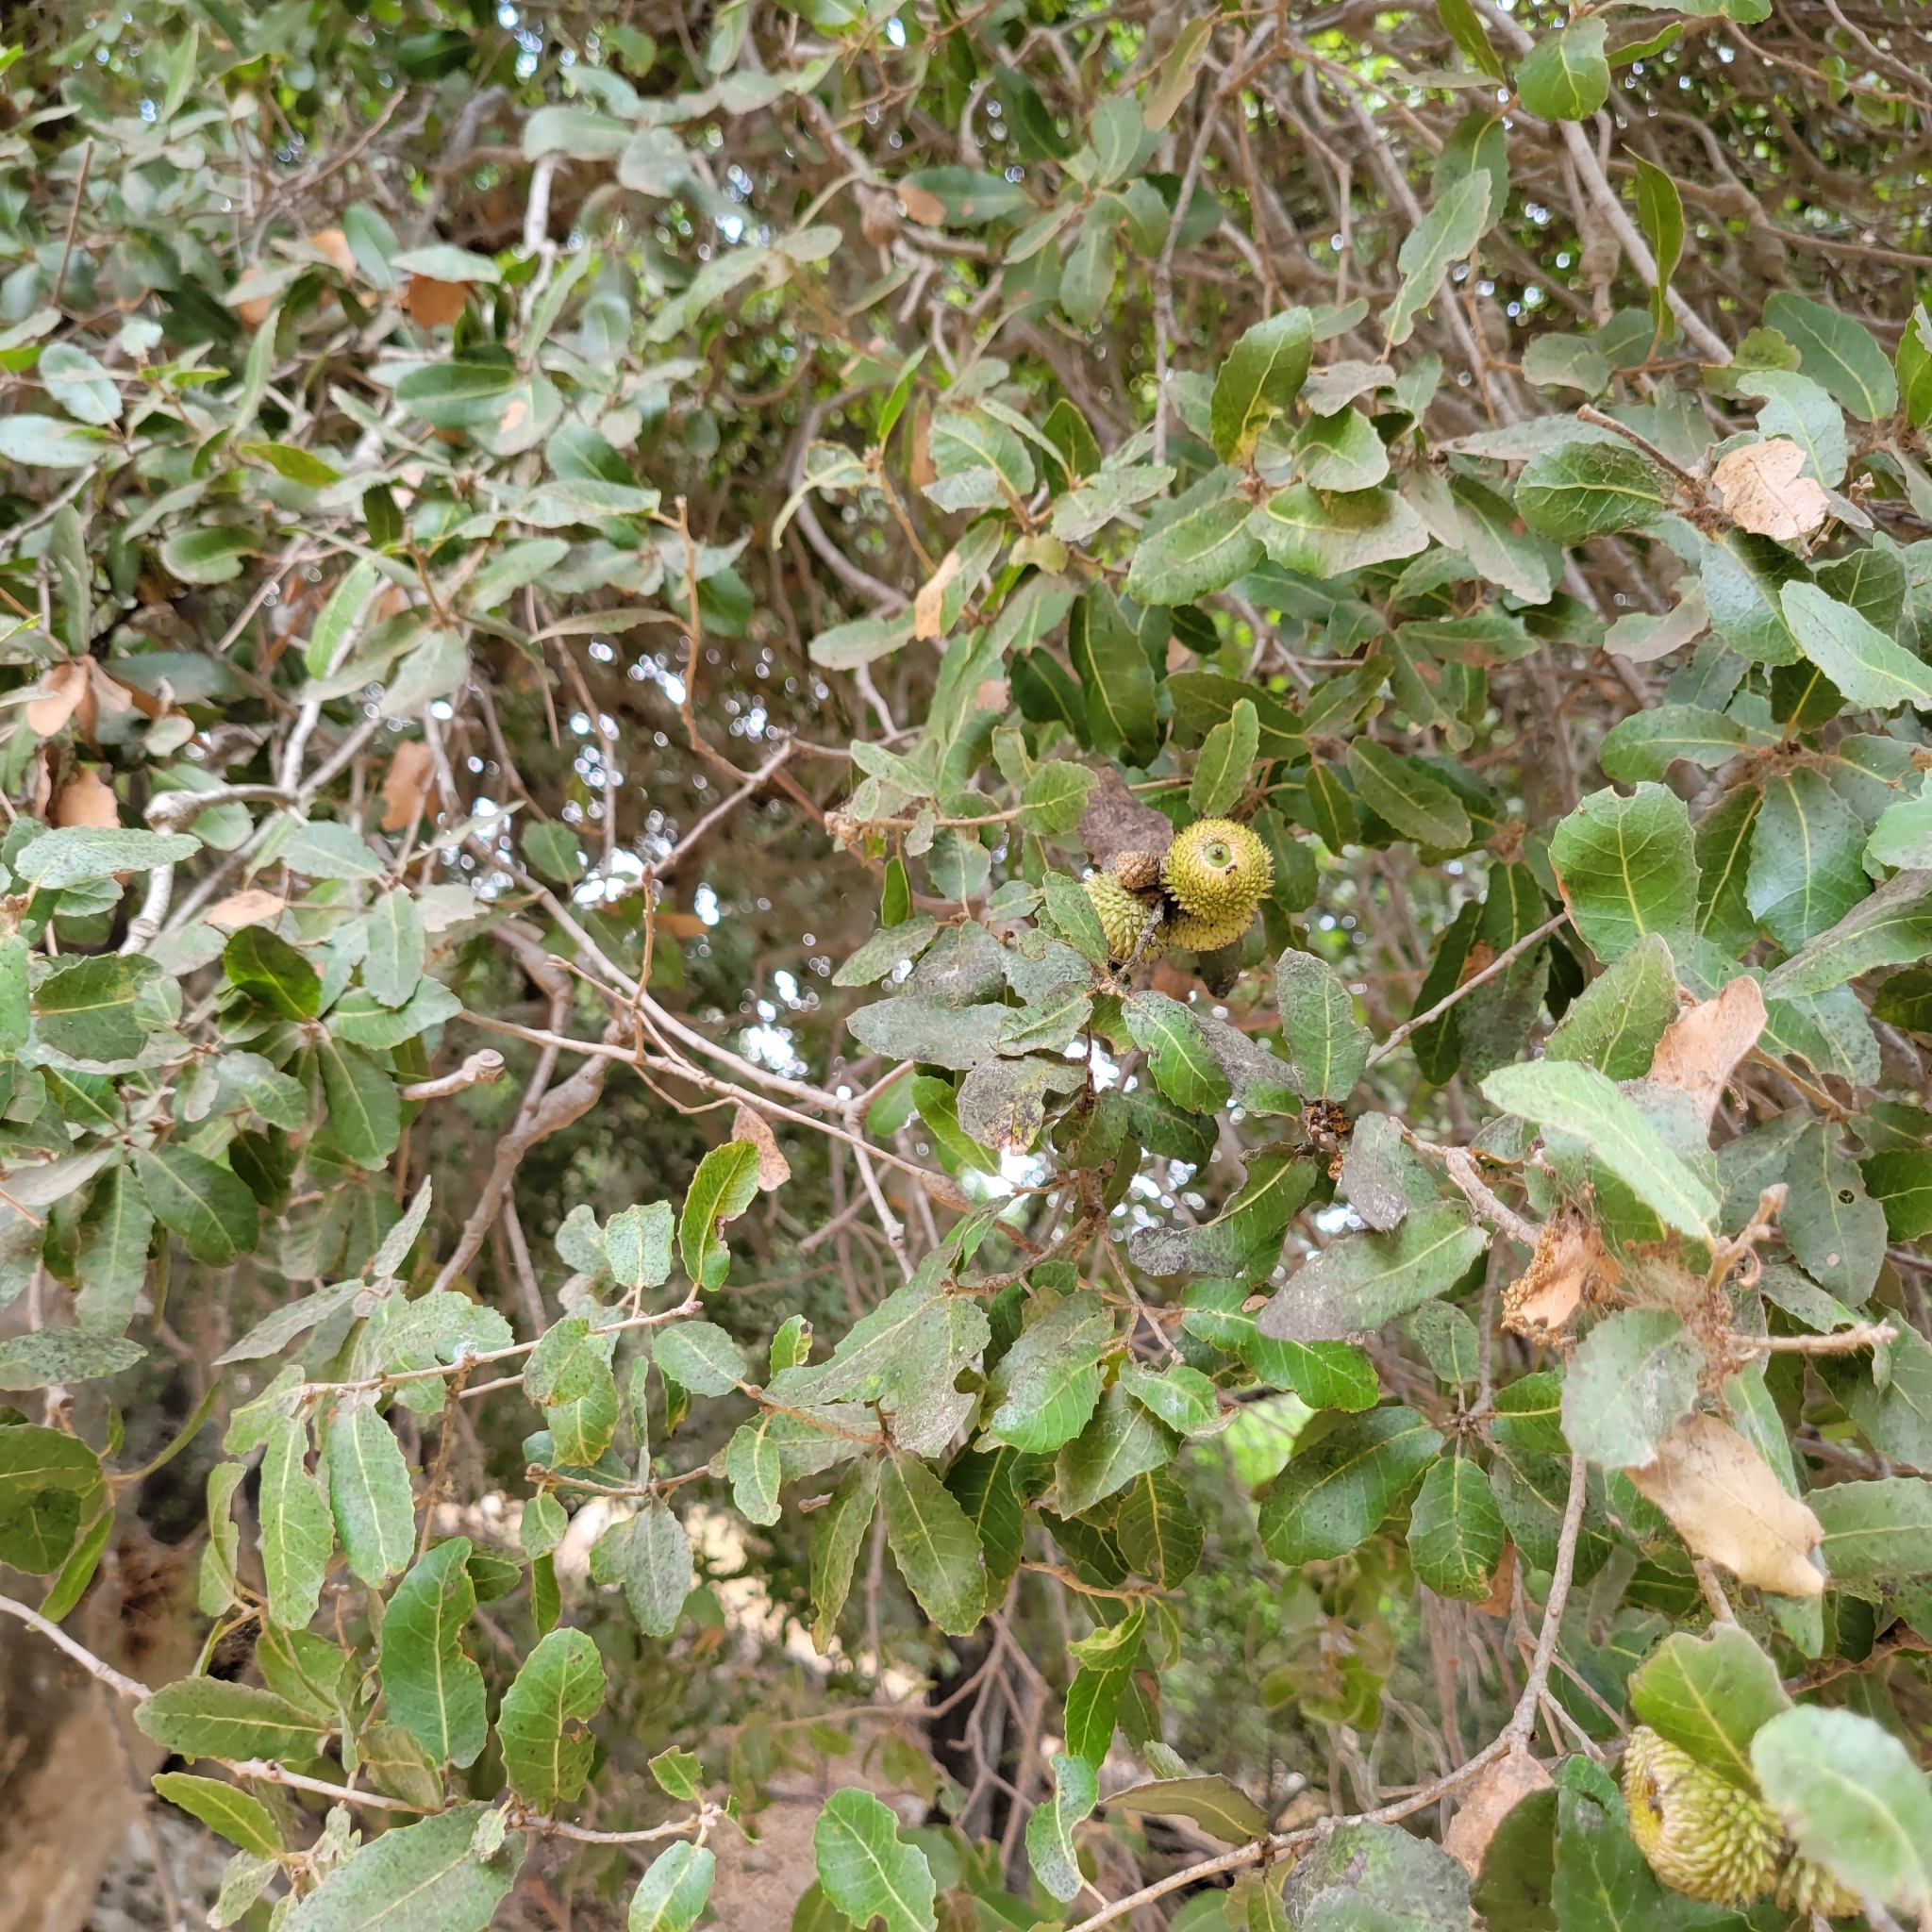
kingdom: Plantae
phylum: Tracheophyta
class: Magnoliopsida
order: Fagales
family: Fagaceae
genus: Quercus
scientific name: Quercus coccifera
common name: Kermes oak
